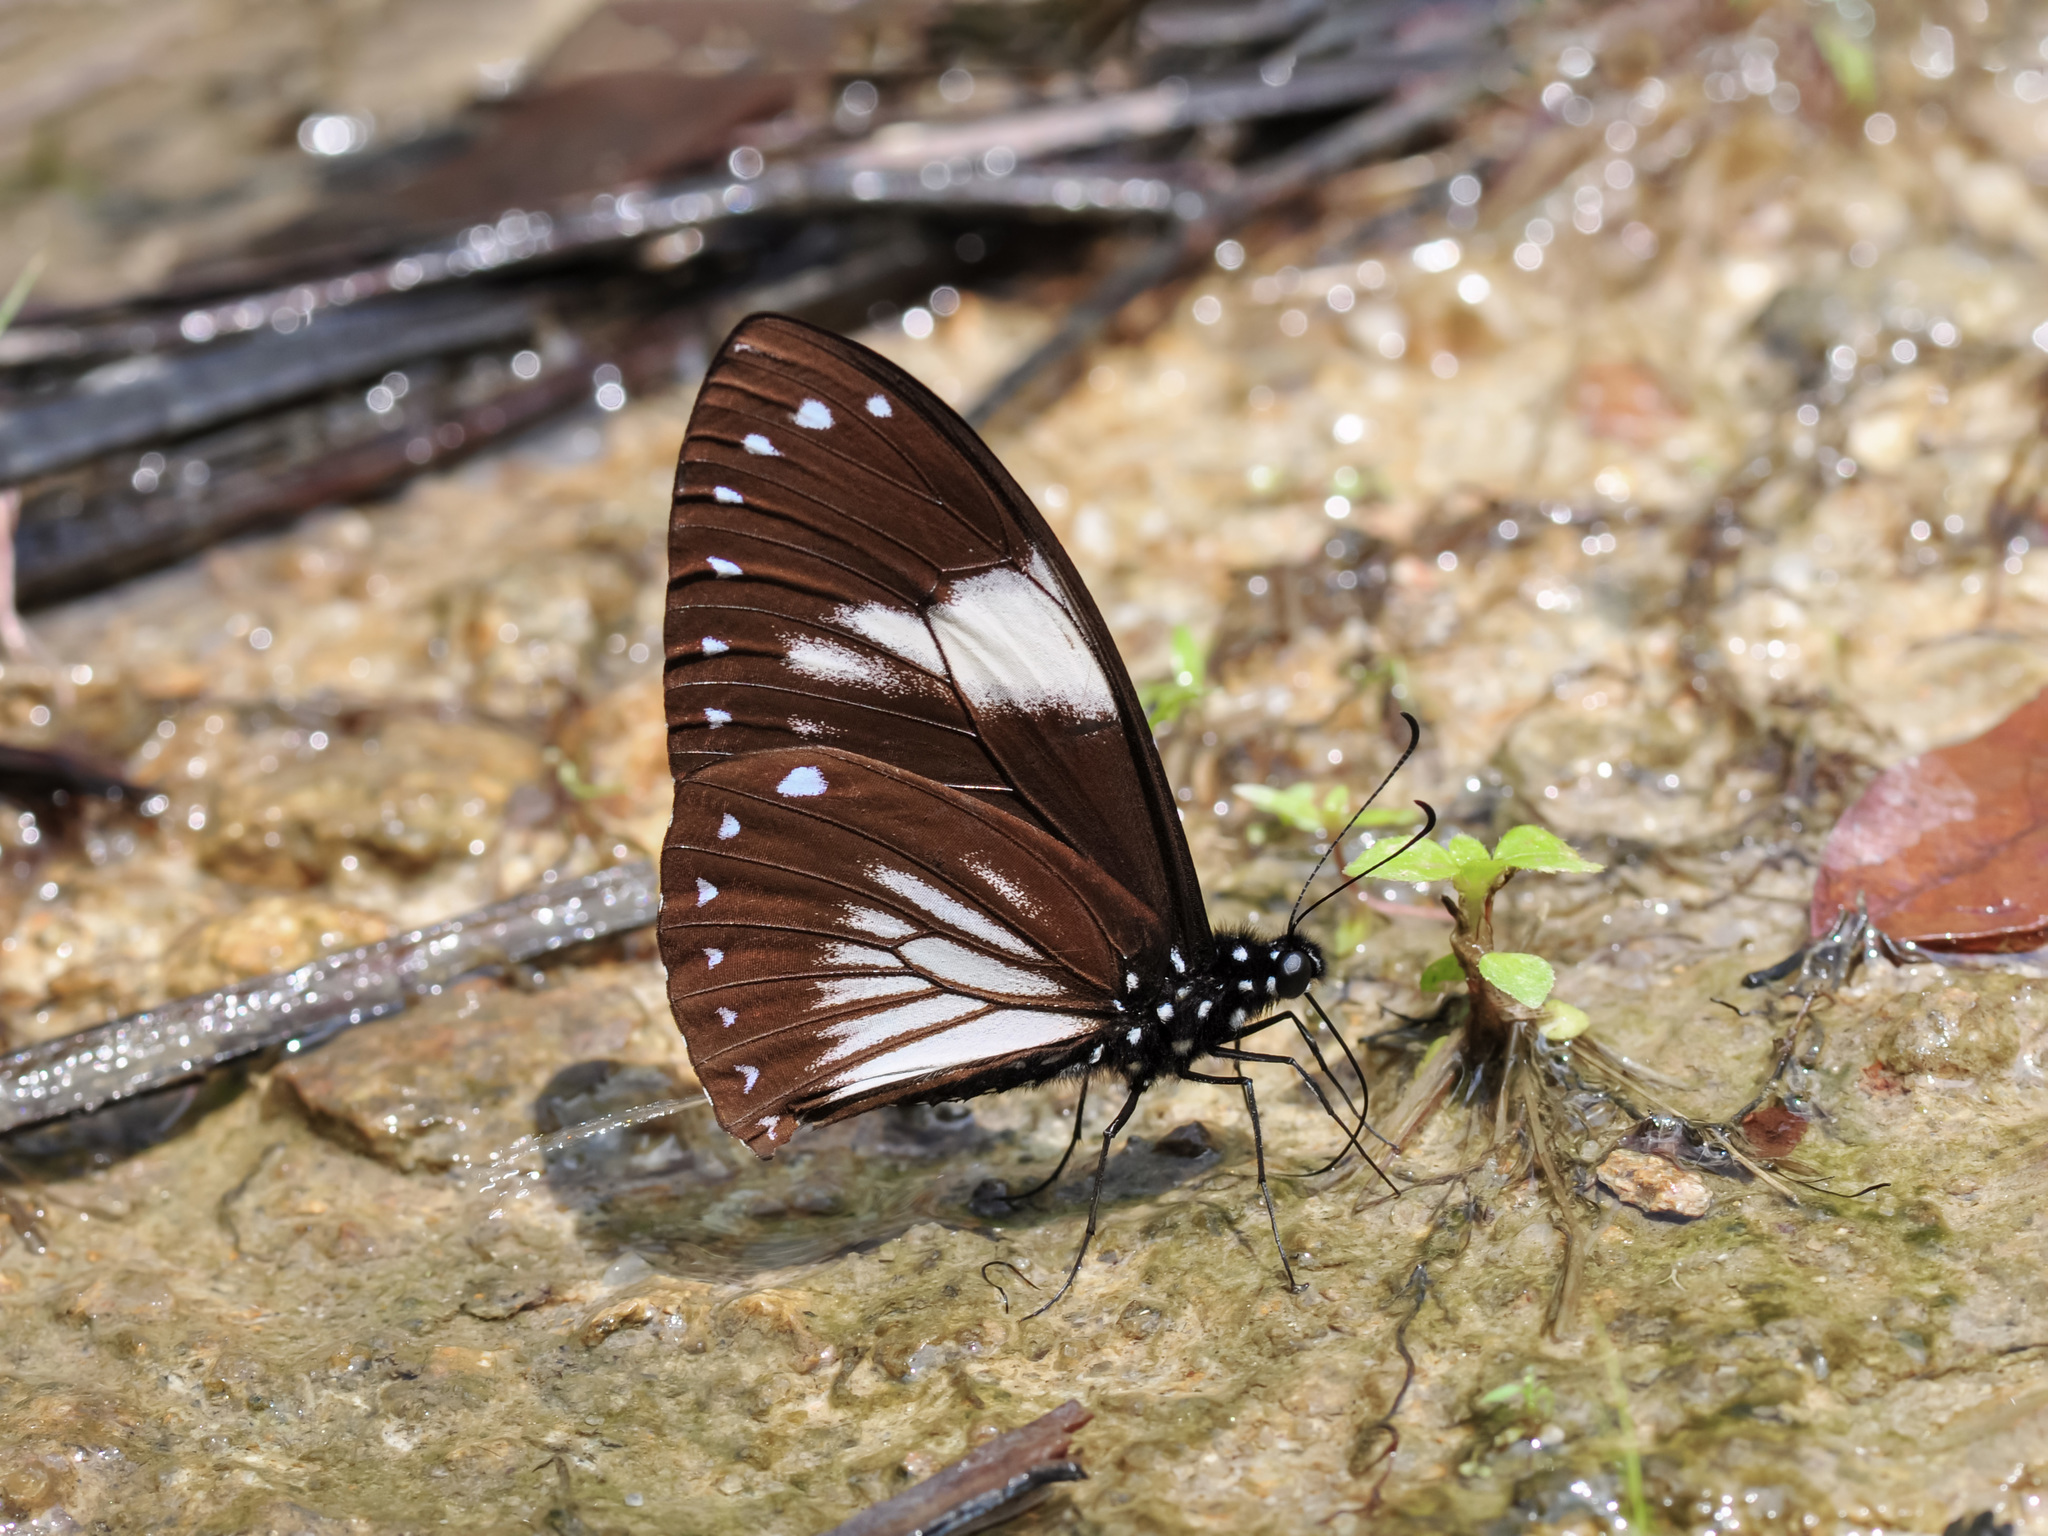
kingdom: Animalia
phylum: Arthropoda
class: Insecta
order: Lepidoptera
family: Papilionidae
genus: Papilio
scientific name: Papilio paradoxa
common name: Great blue mime swallowtail
